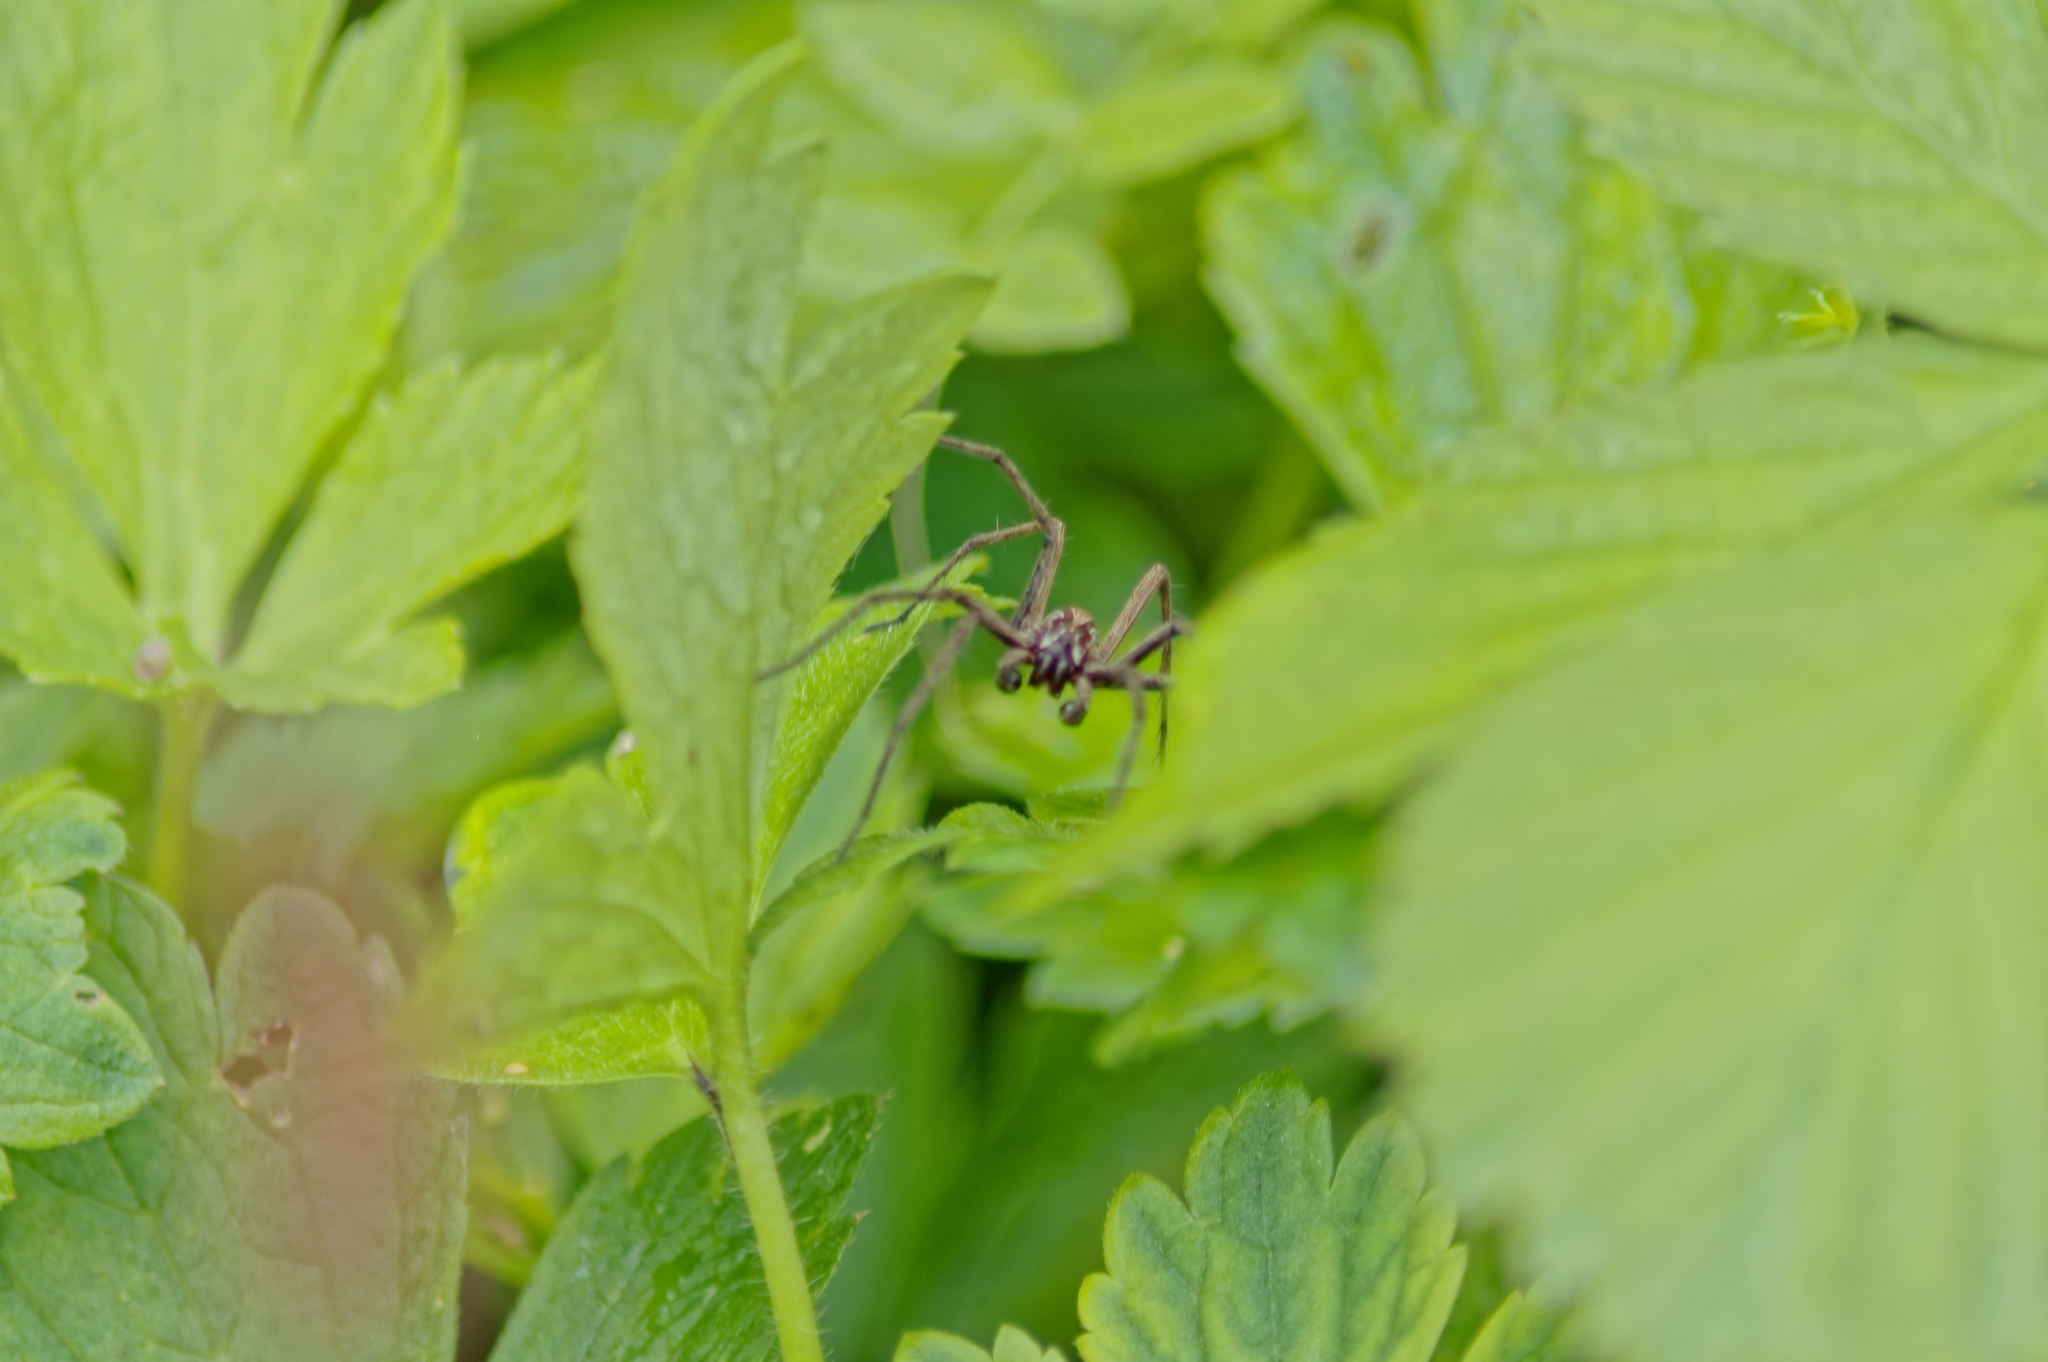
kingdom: Animalia
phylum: Arthropoda
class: Arachnida
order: Araneae
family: Pisauridae
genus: Pisaura
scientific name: Pisaura mirabilis
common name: Tent spider
